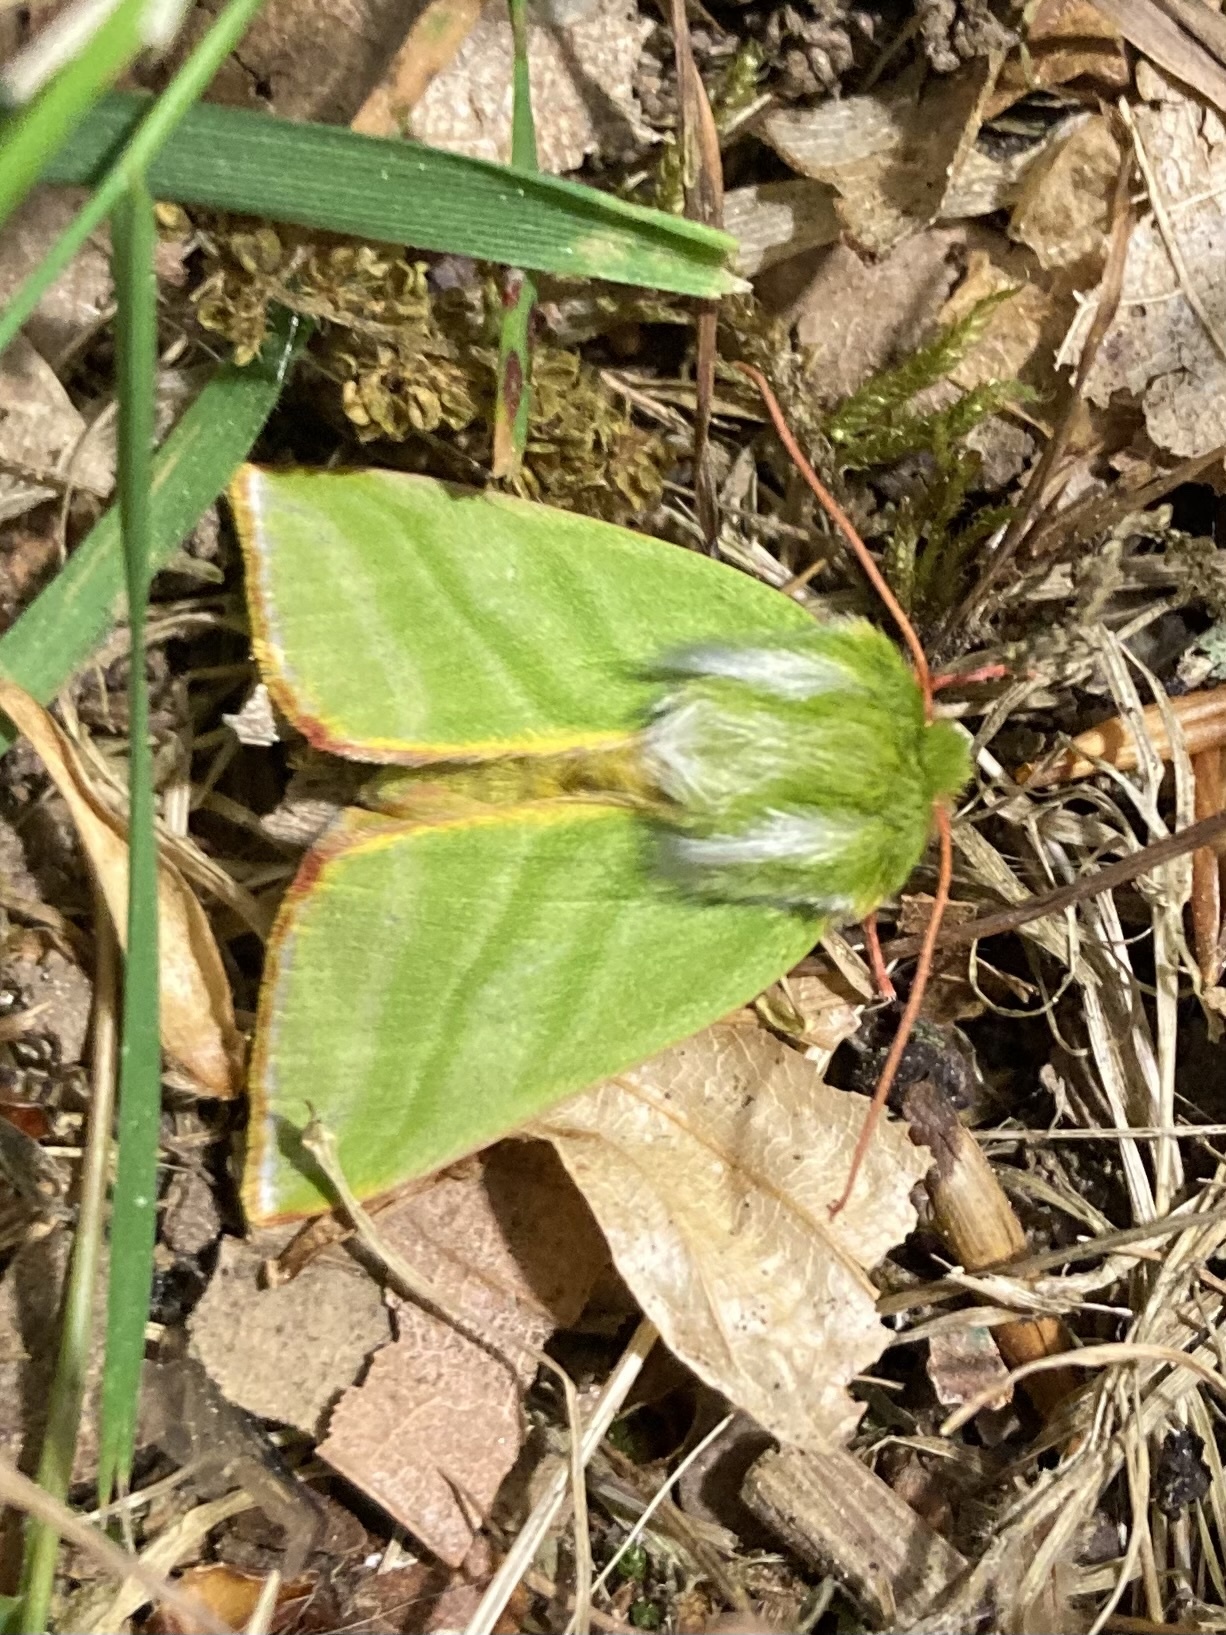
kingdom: Animalia
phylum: Arthropoda
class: Insecta
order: Lepidoptera
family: Nolidae
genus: Pseudoips
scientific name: Pseudoips prasinana
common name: Green silver-lines
